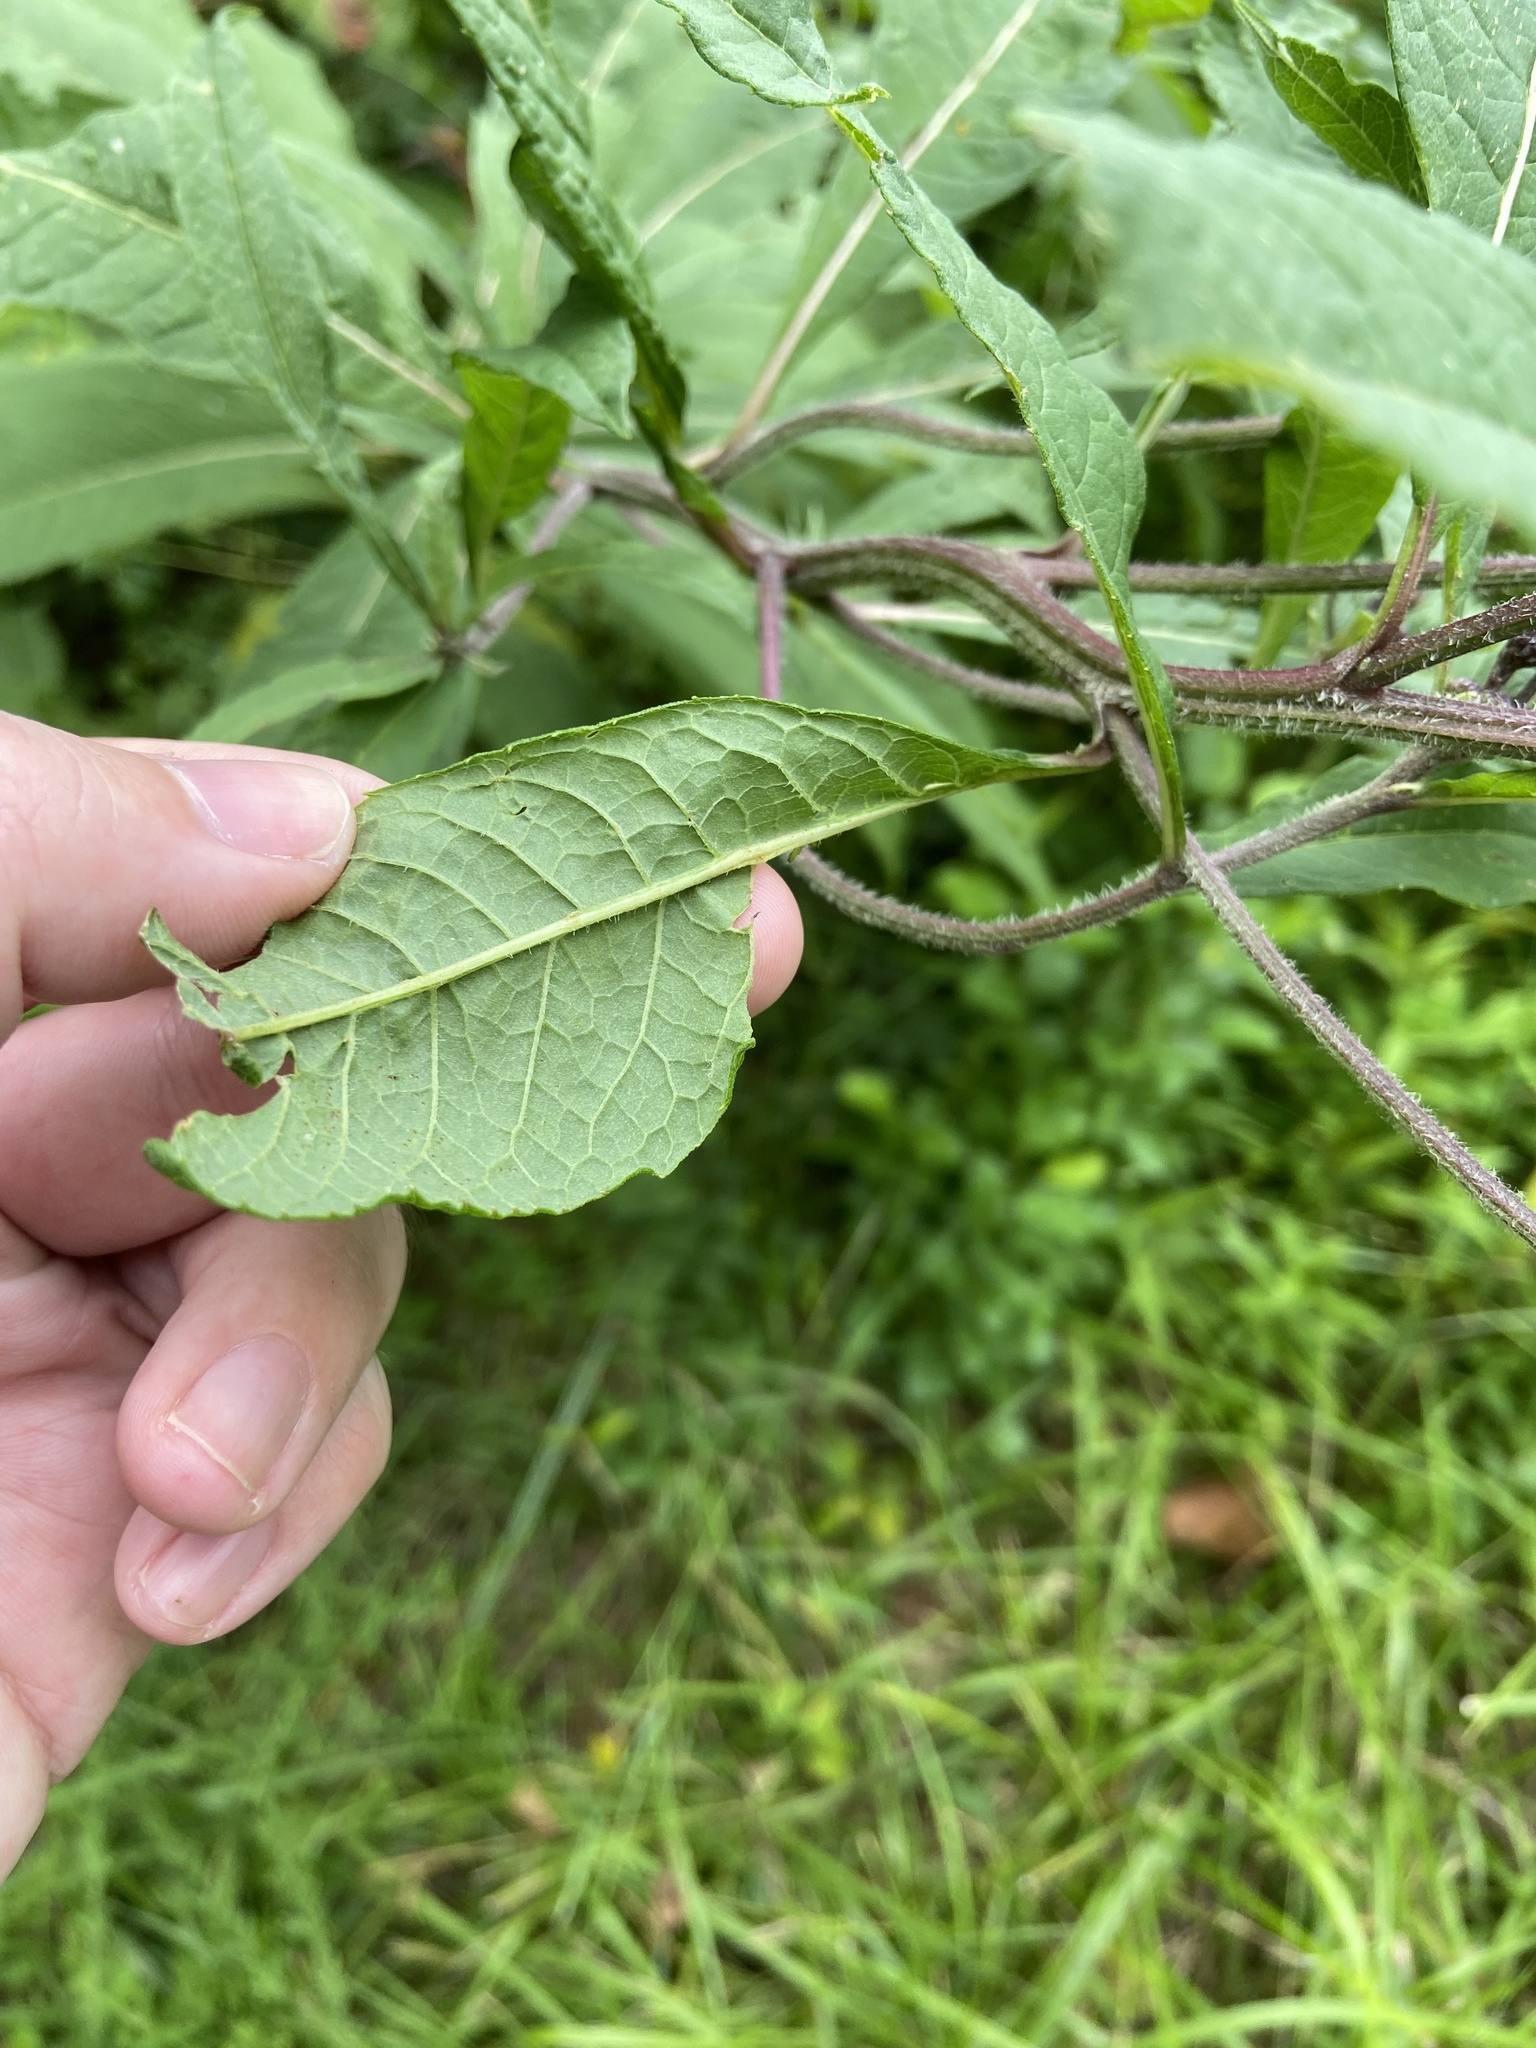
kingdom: Plantae
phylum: Tracheophyta
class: Magnoliopsida
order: Asterales
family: Asteraceae
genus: Vernonia
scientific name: Vernonia gigantea
